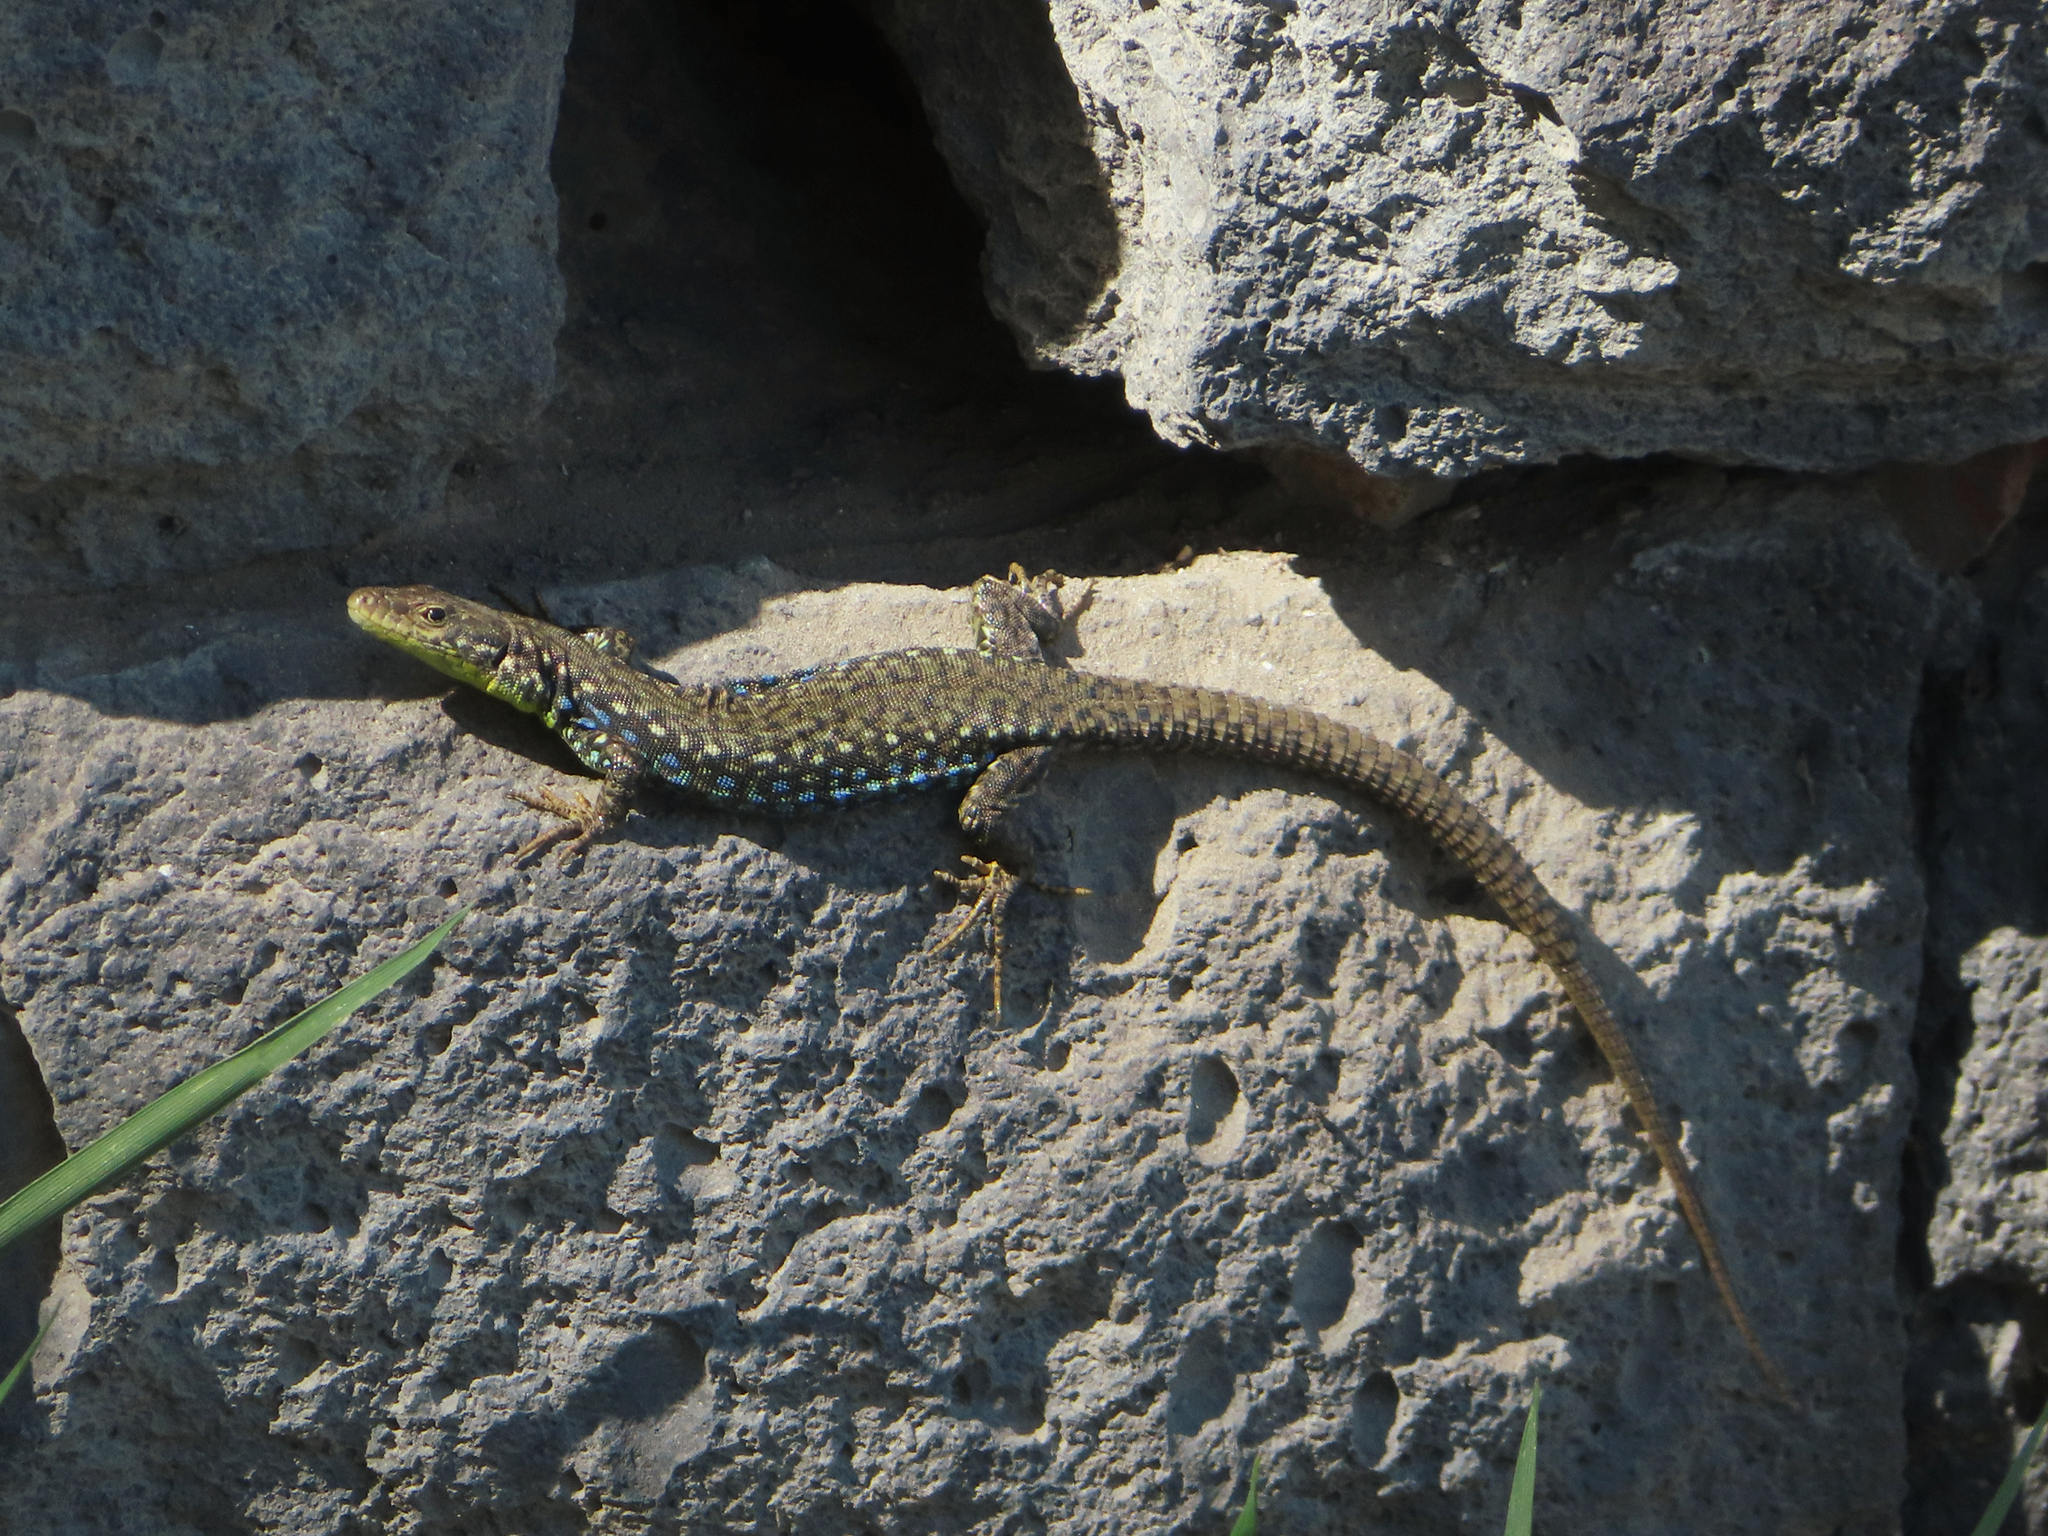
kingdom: Animalia
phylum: Chordata
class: Squamata
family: Lacertidae
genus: Darevskia
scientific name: Darevskia
